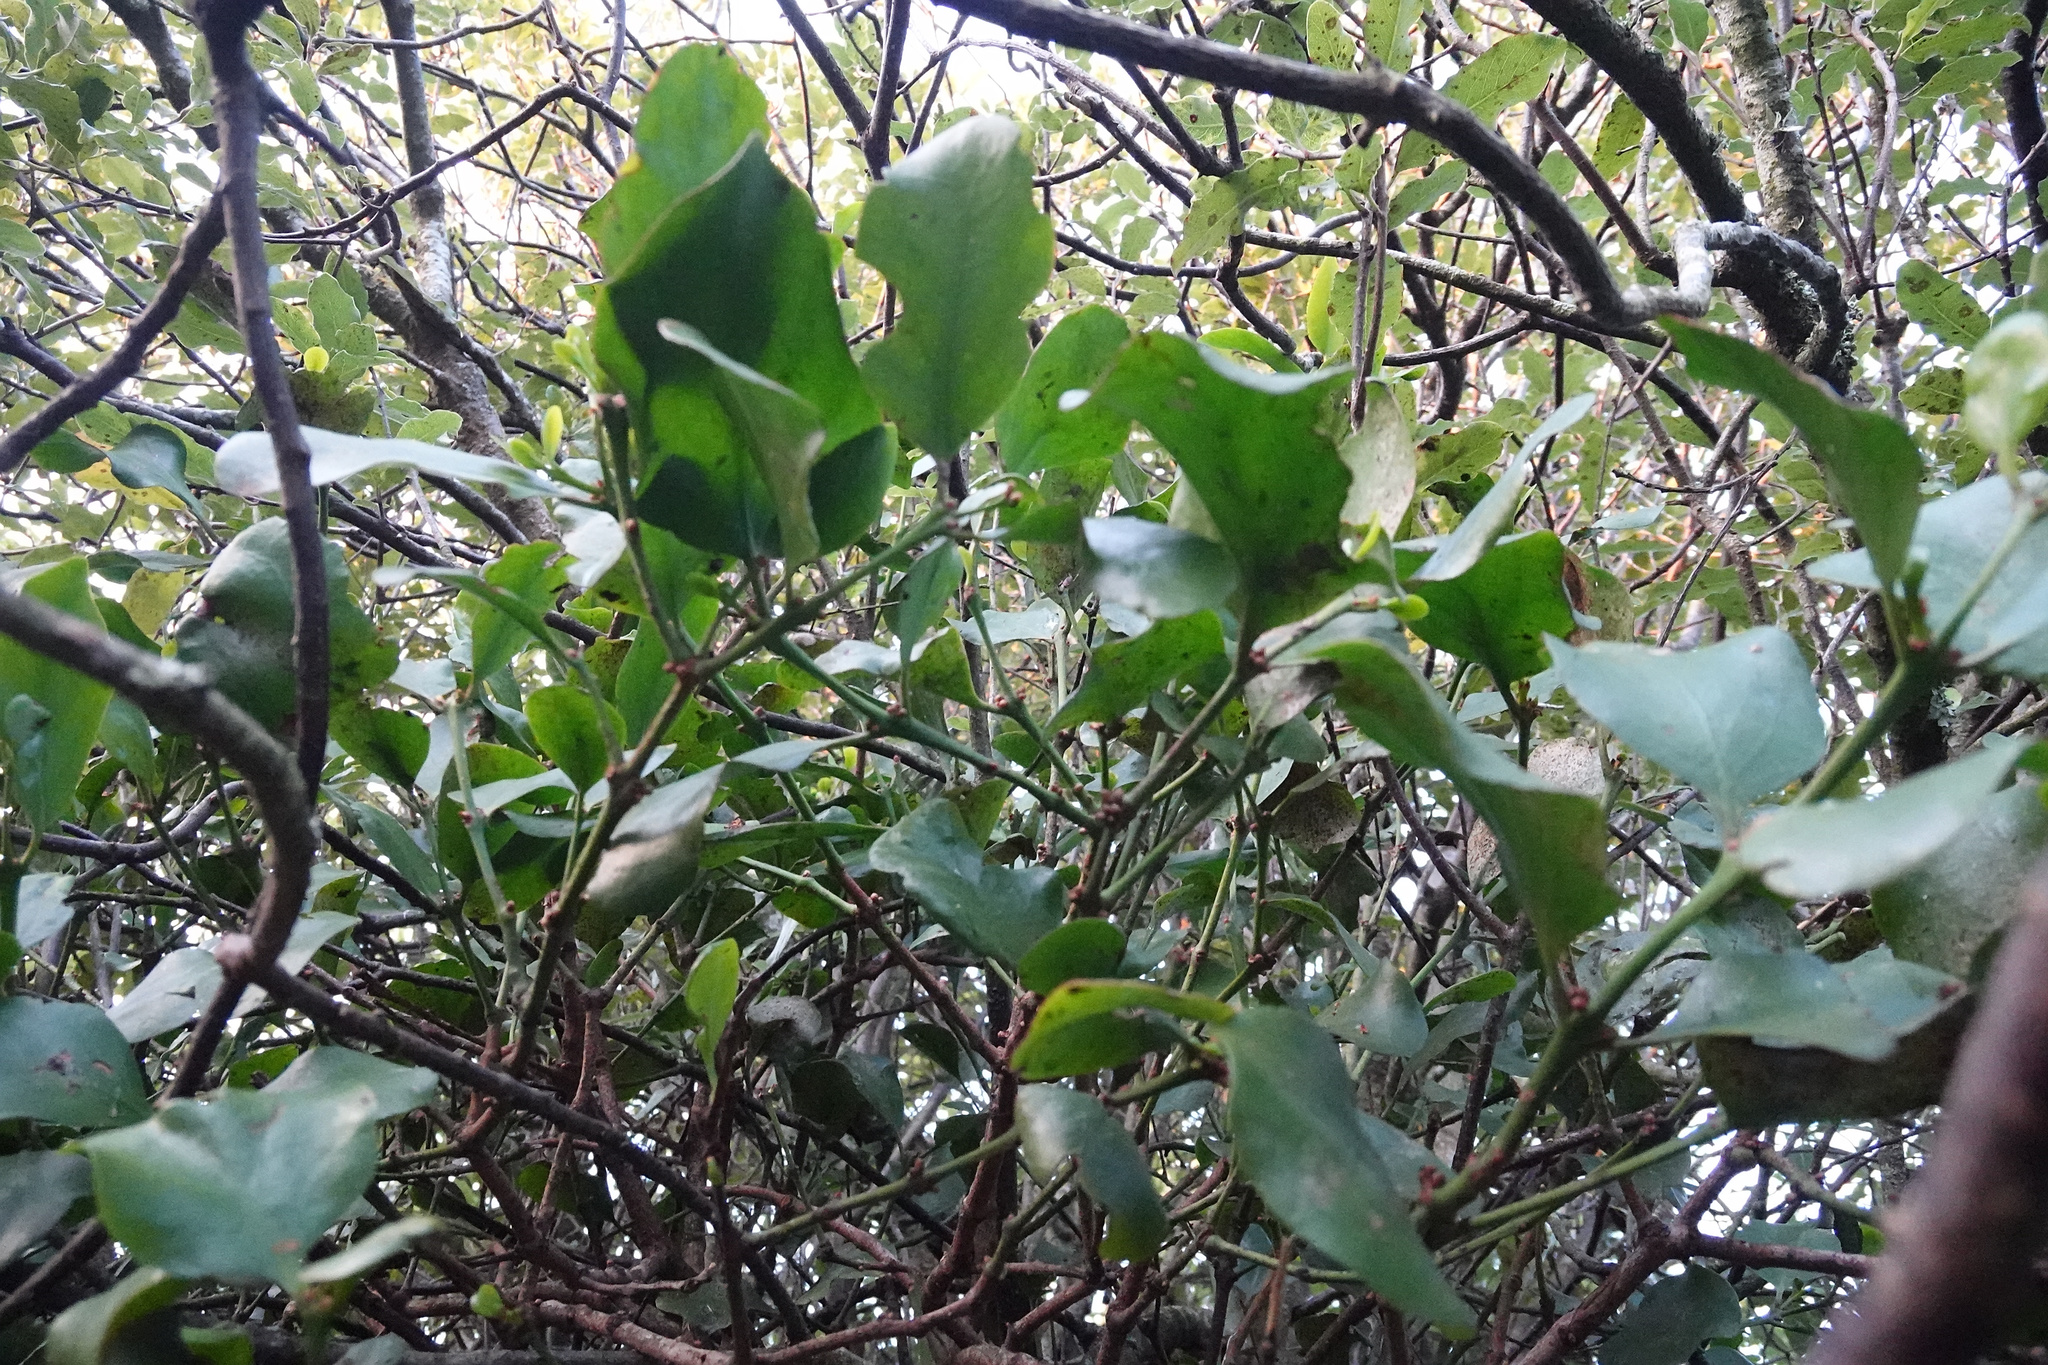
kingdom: Plantae
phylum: Tracheophyta
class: Magnoliopsida
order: Santalales
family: Loranthaceae
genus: Ileostylus
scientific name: Ileostylus micranthus
